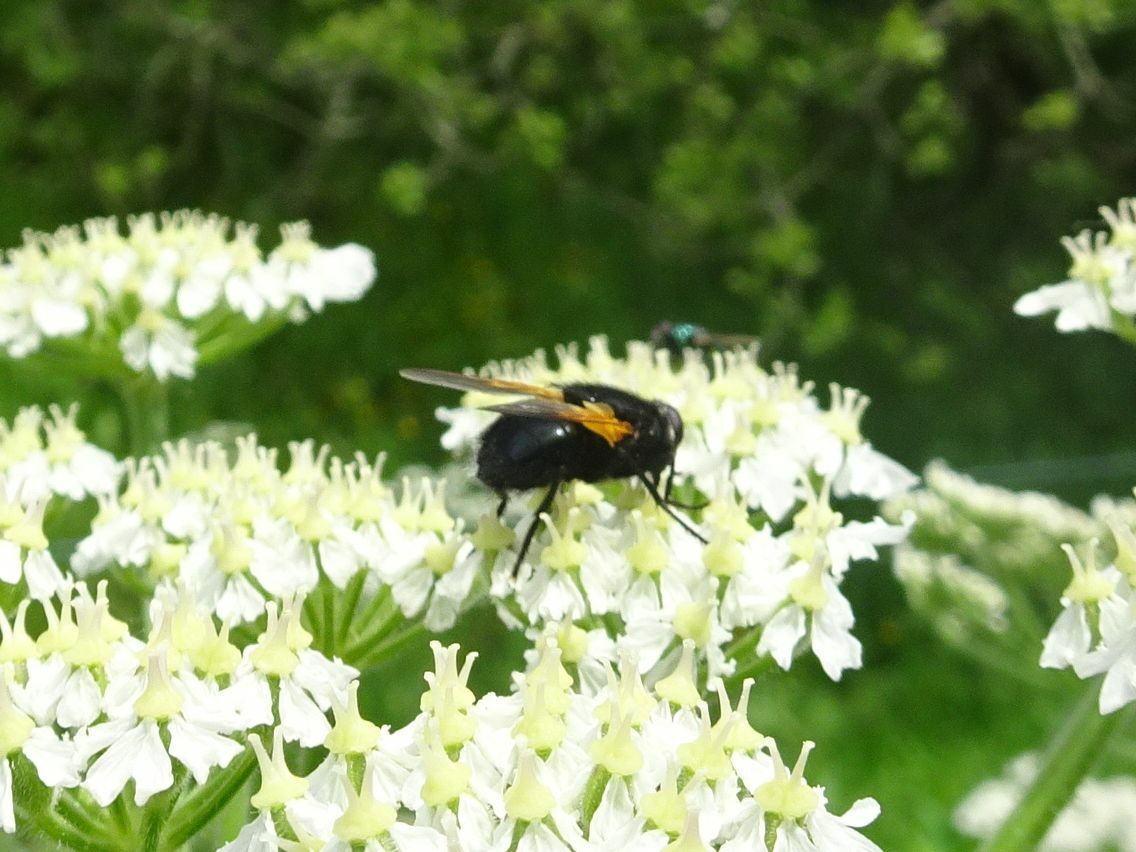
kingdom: Animalia
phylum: Arthropoda
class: Insecta
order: Diptera
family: Muscidae
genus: Mesembrina
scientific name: Mesembrina meridiana
